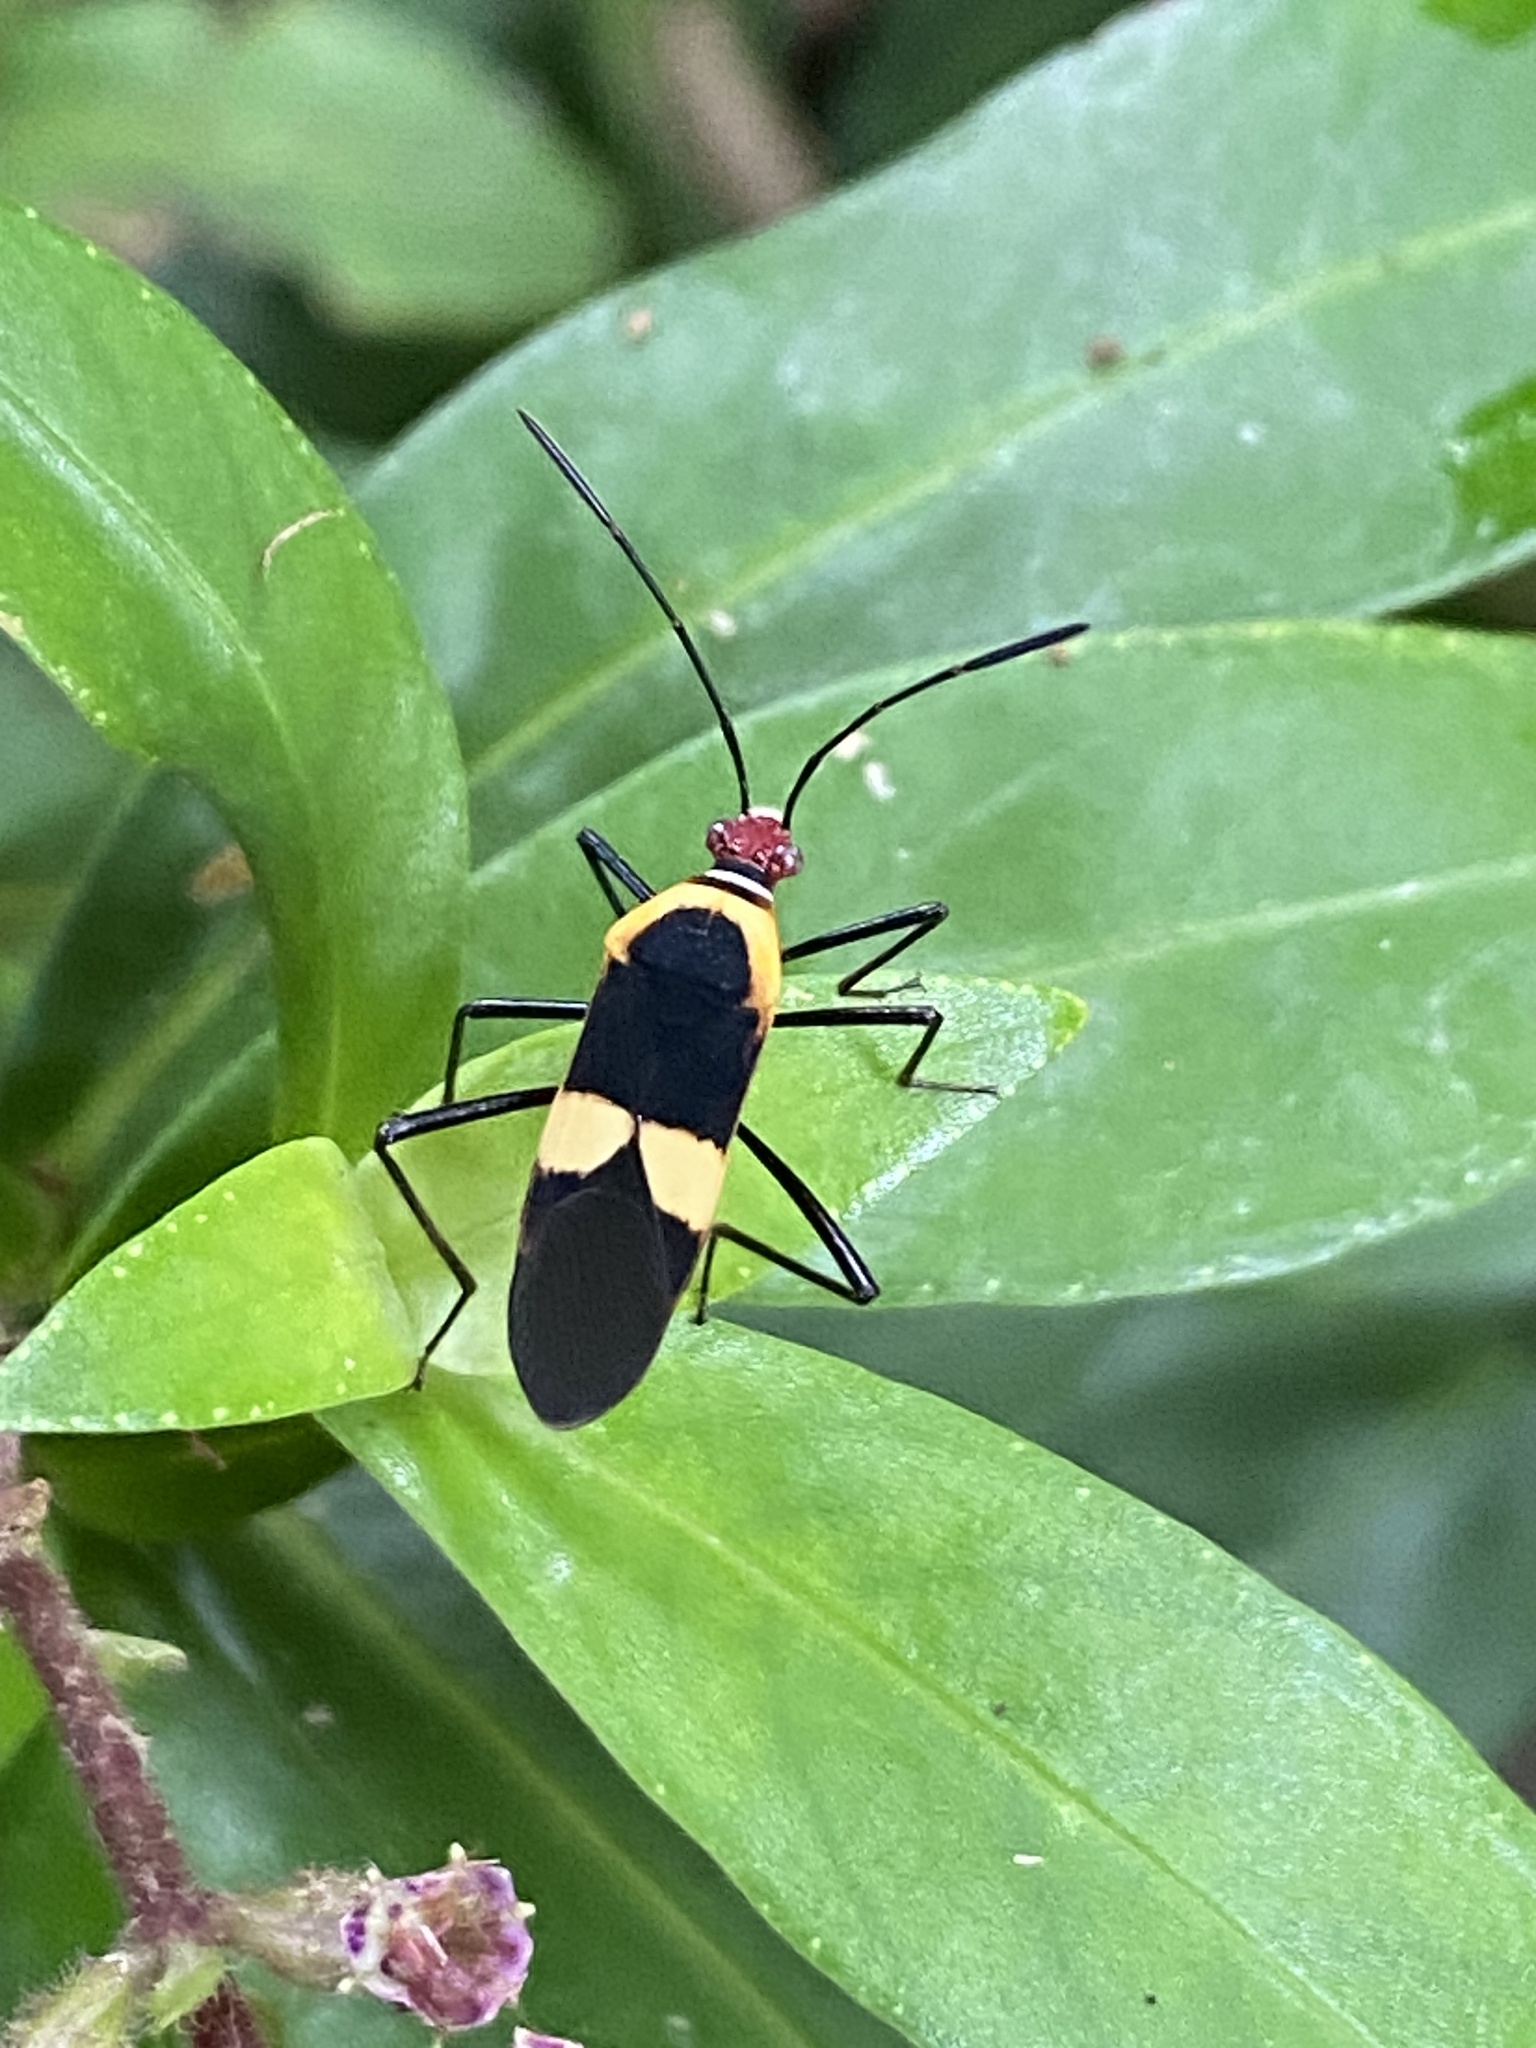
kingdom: Animalia
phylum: Arthropoda
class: Insecta
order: Hemiptera
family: Coreidae
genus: Hypselonotus
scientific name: Hypselonotus interruptus
